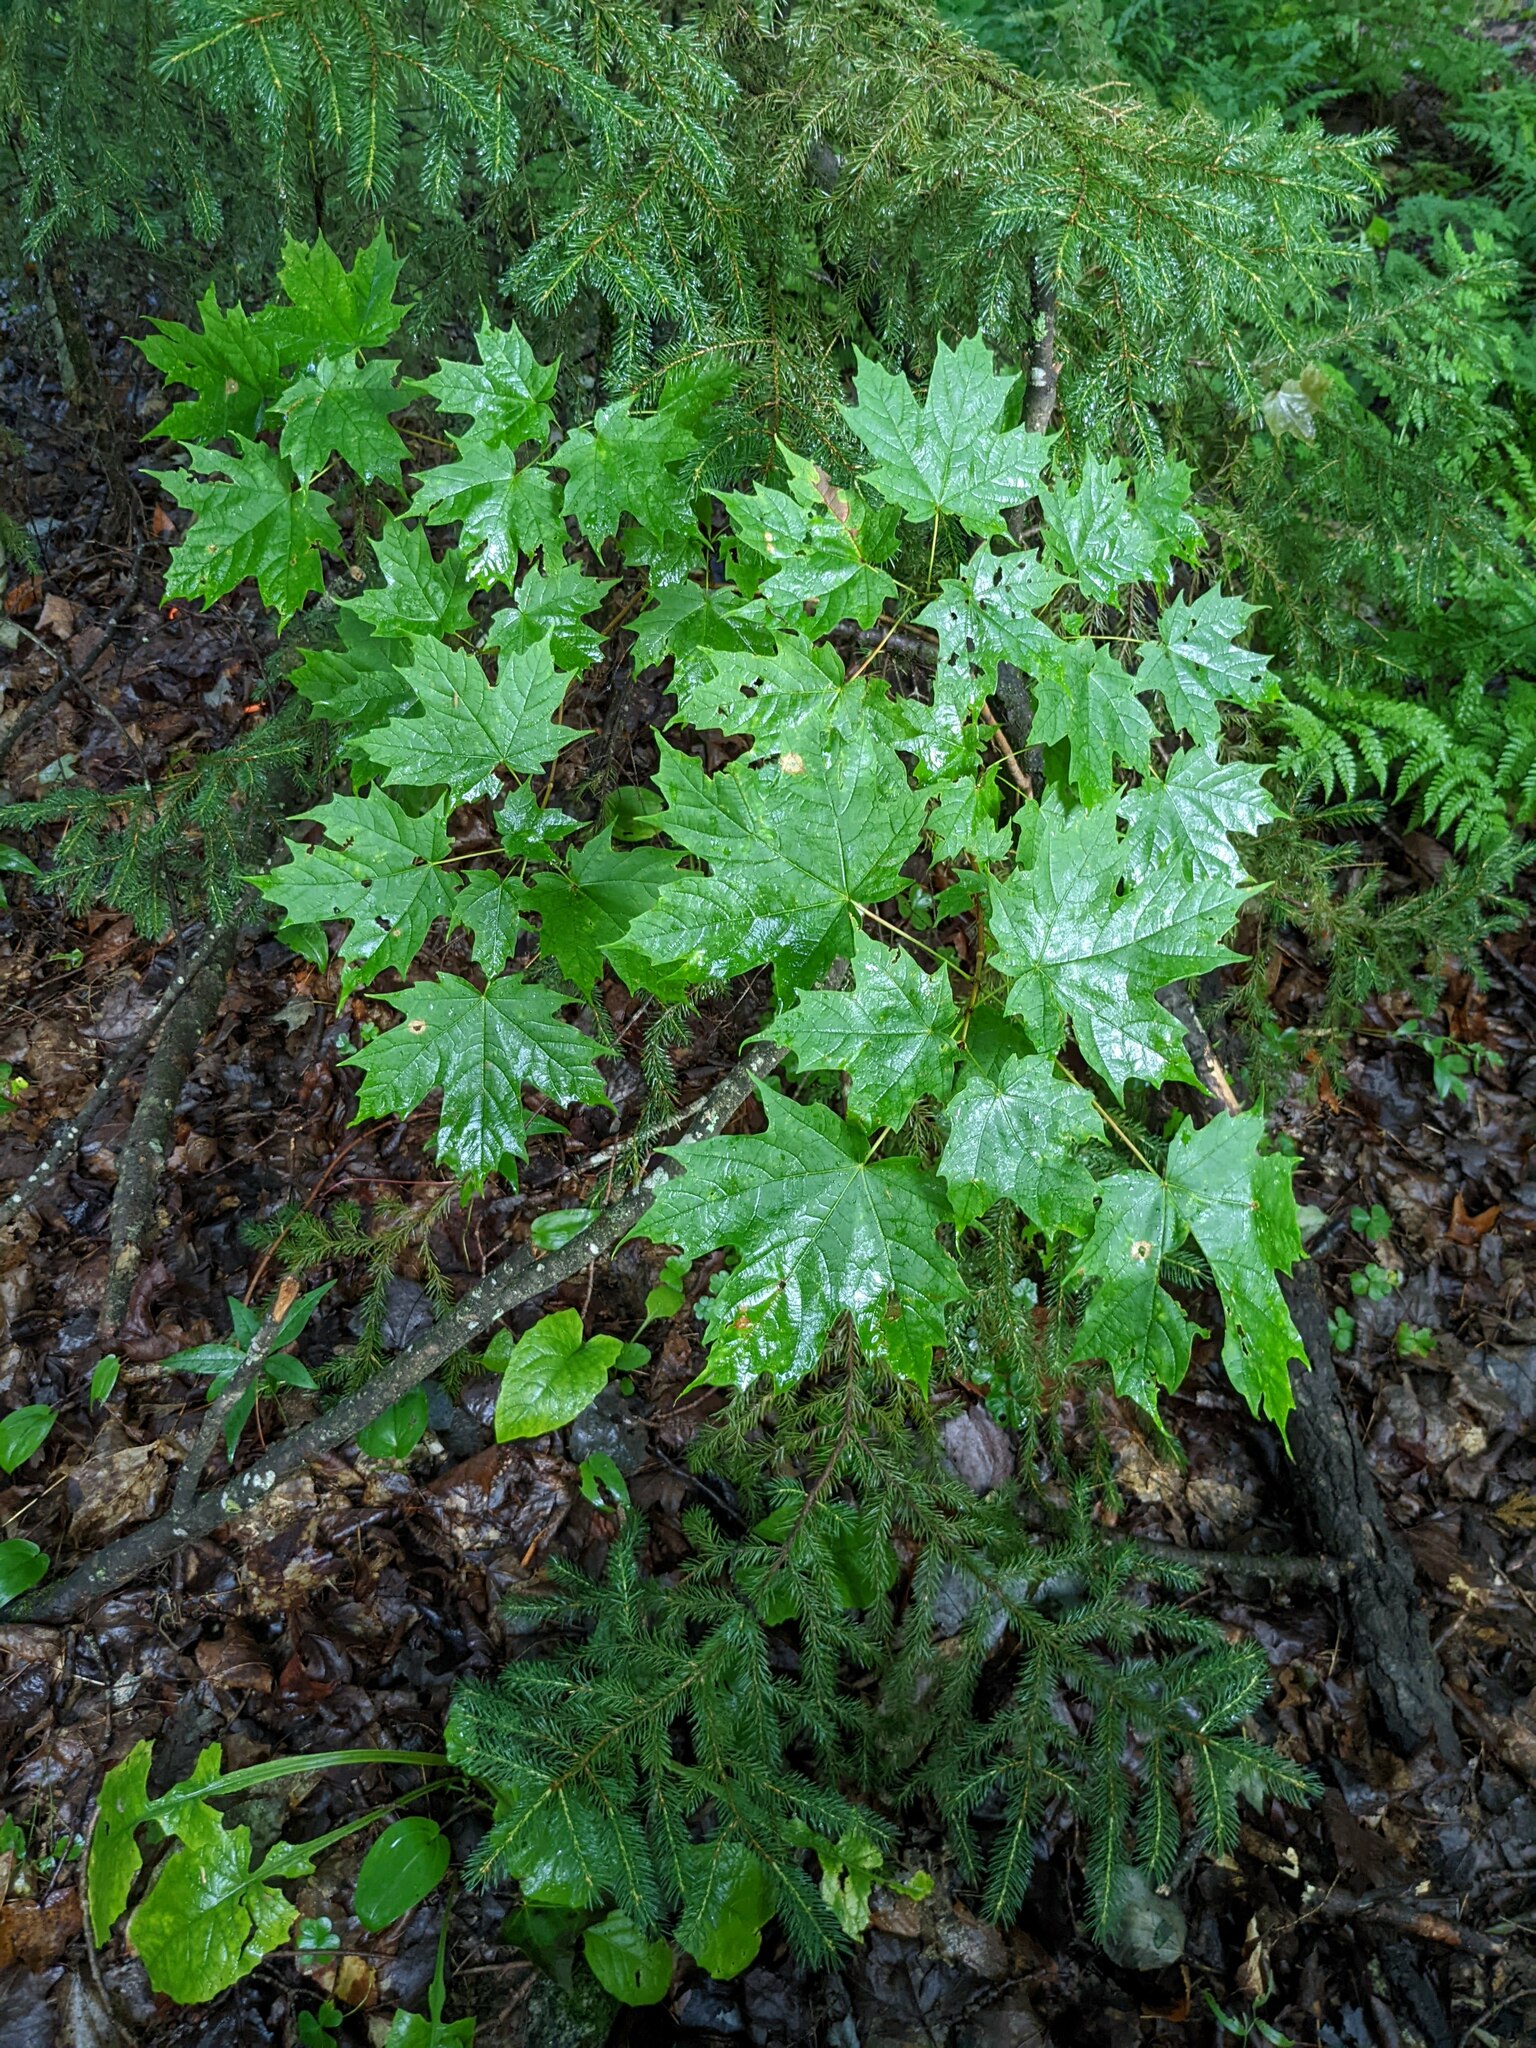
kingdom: Plantae
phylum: Tracheophyta
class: Magnoliopsida
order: Sapindales
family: Sapindaceae
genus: Acer
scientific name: Acer saccharum
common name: Sugar maple
